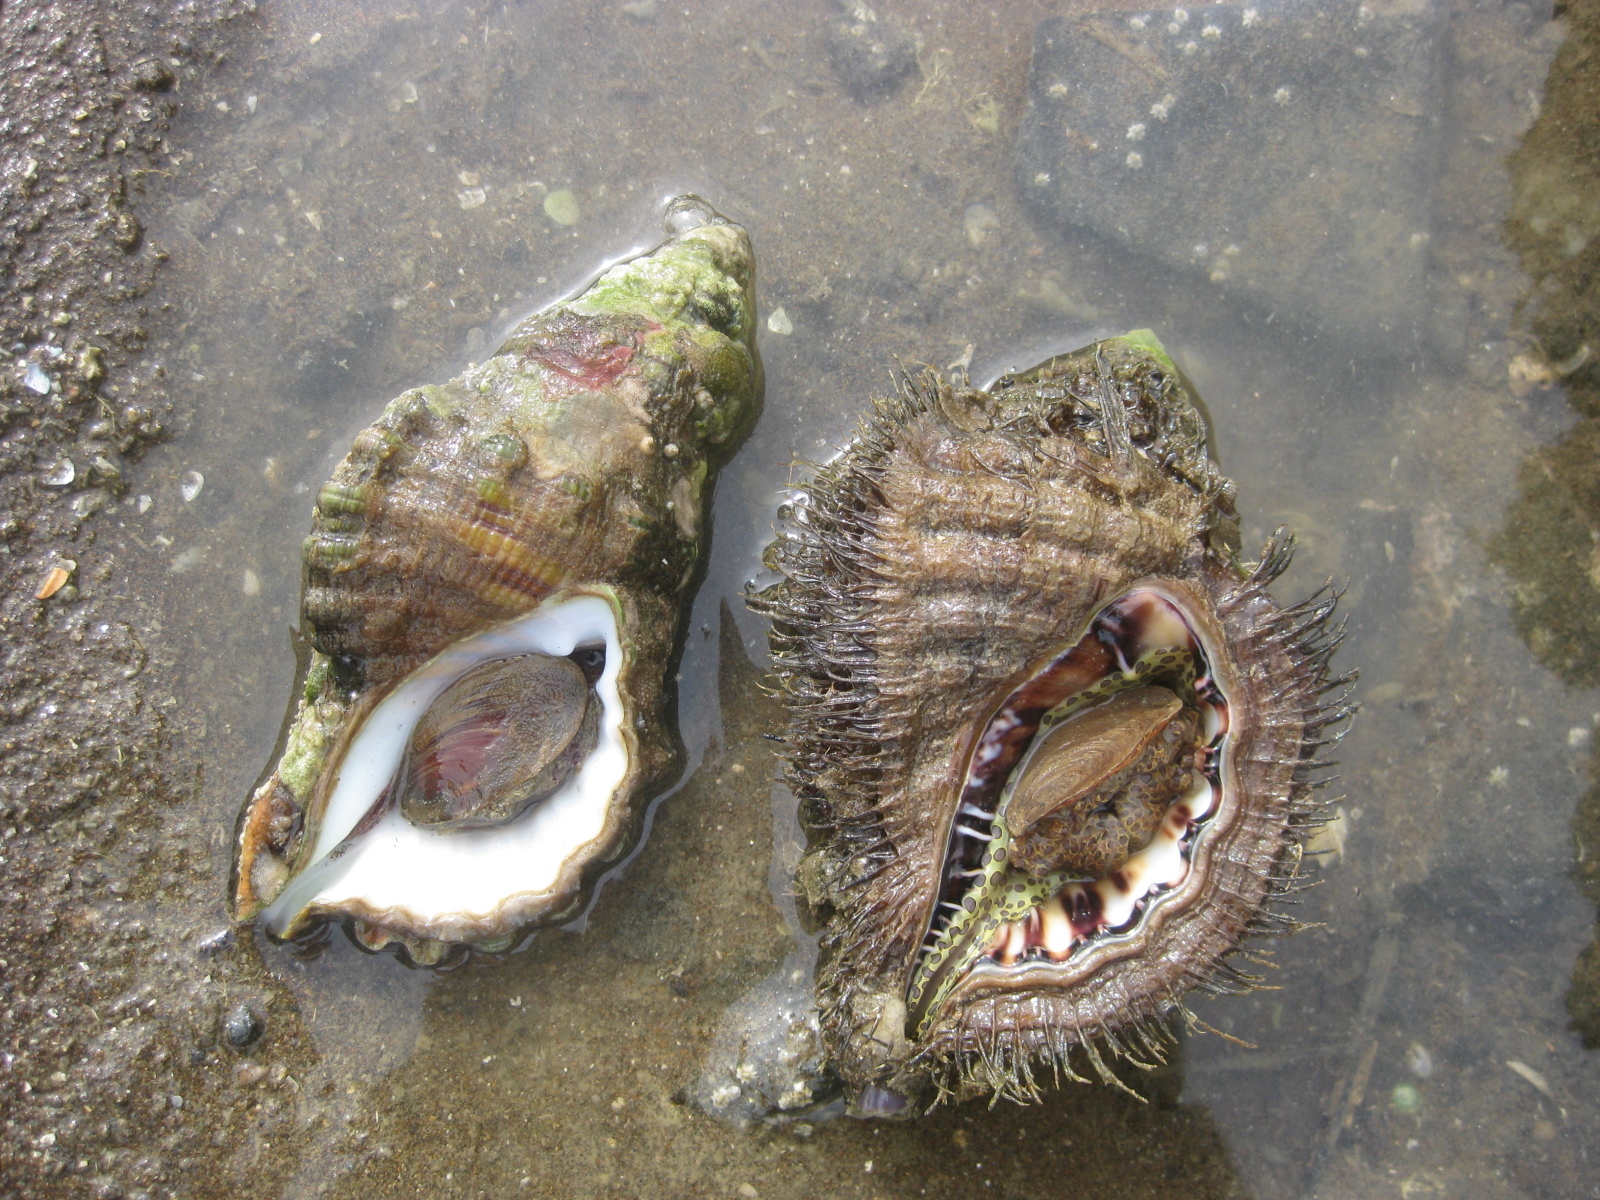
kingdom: Animalia
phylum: Mollusca
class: Gastropoda
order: Littorinimorpha
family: Cymatiidae
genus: Monoplex
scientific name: Monoplex parthenopeus
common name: Giant triton
